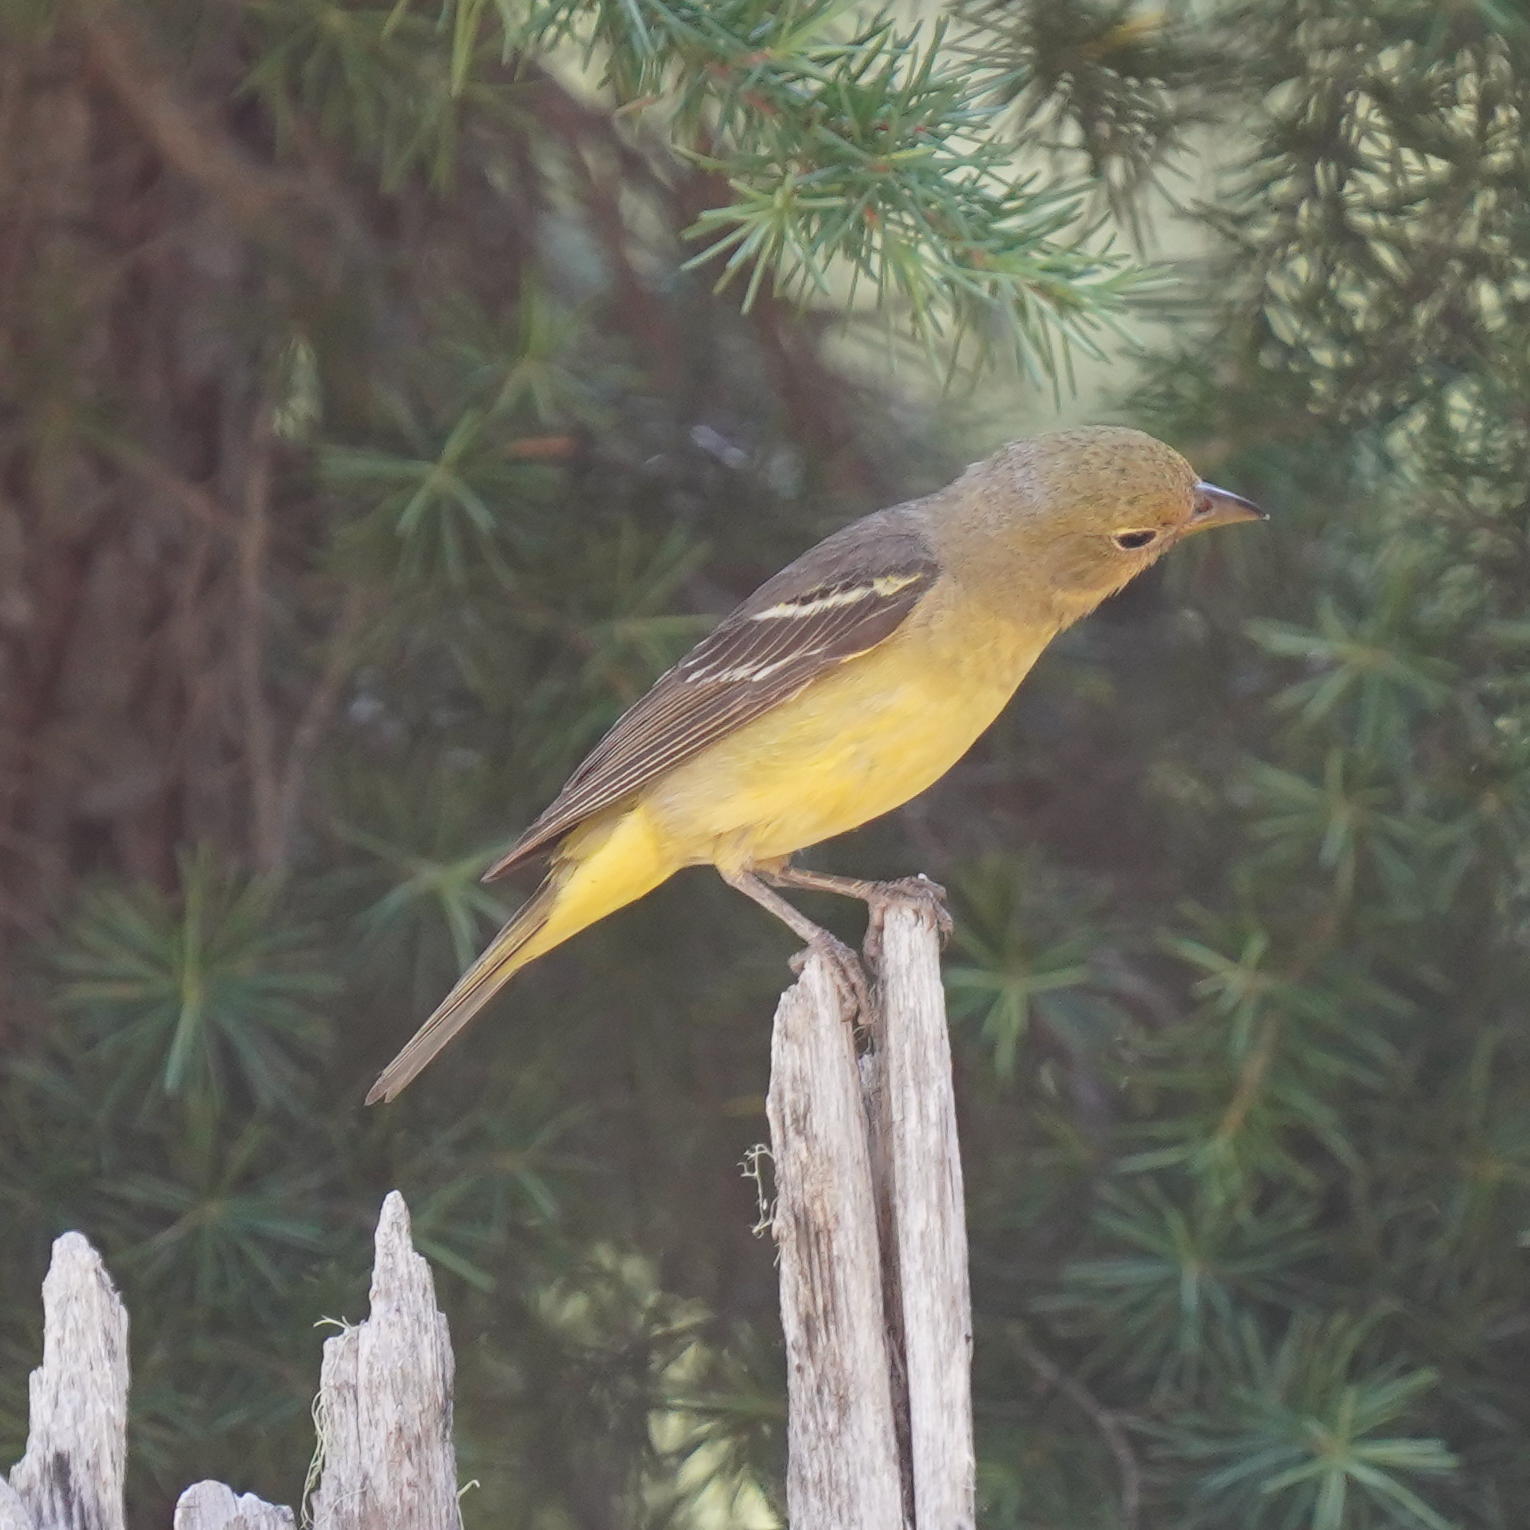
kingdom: Animalia
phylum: Chordata
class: Aves
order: Passeriformes
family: Cardinalidae
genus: Piranga
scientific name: Piranga ludoviciana
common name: Western tanager
